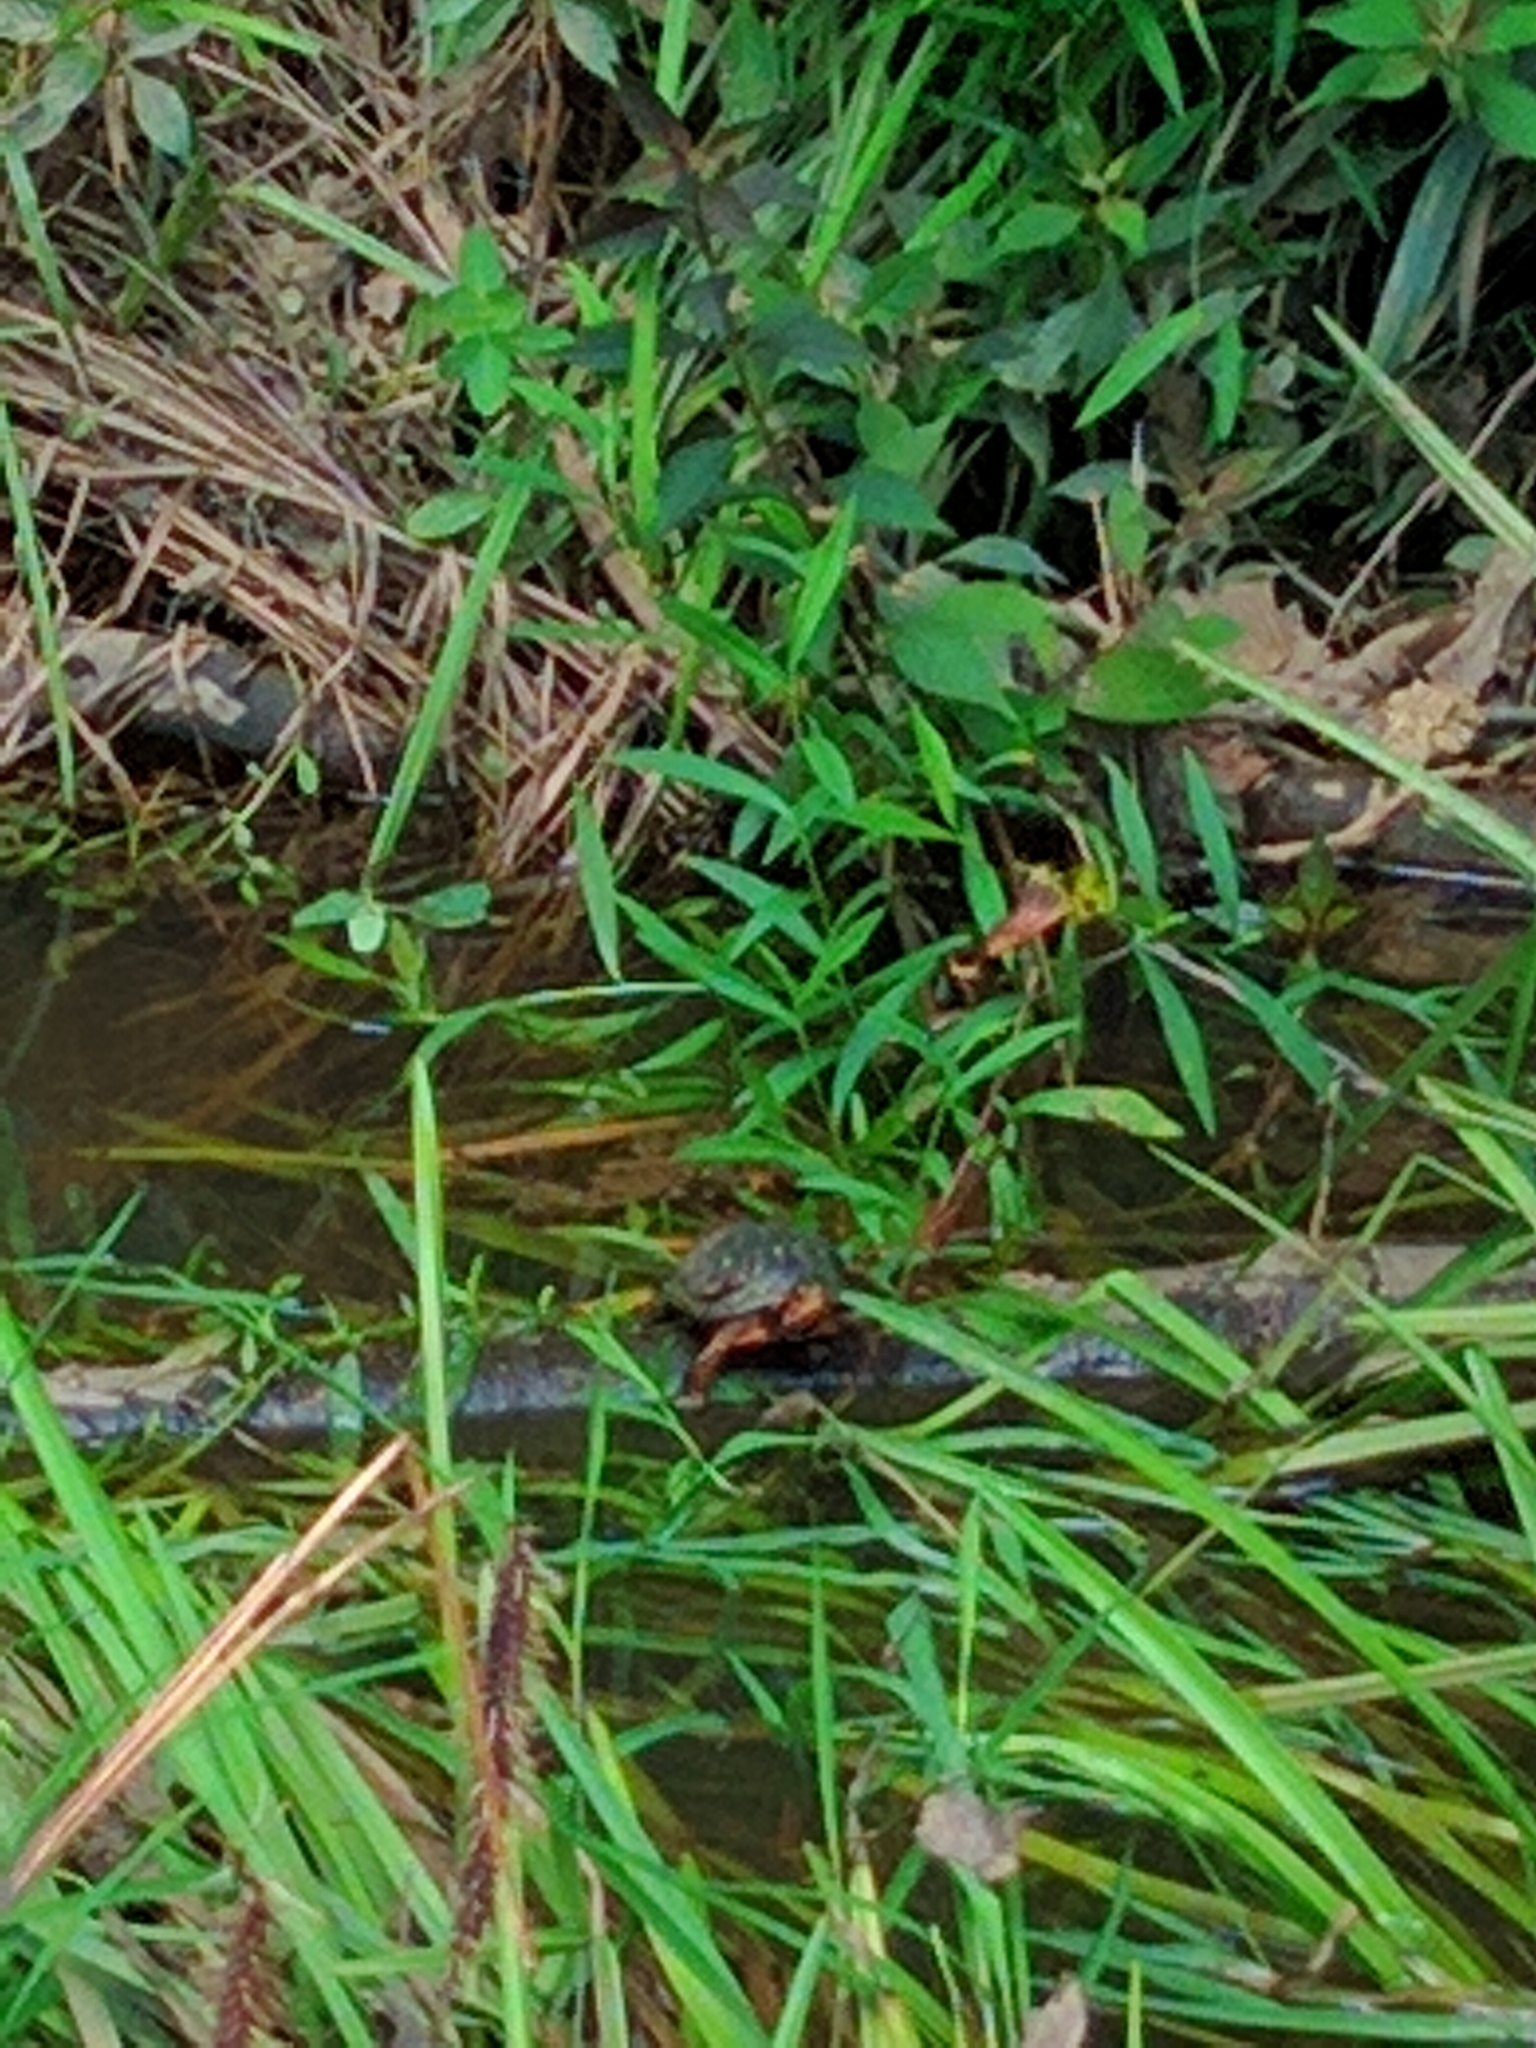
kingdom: Animalia
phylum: Chordata
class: Testudines
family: Emydidae
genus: Clemmys
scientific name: Clemmys guttata
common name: Spotted turtle
